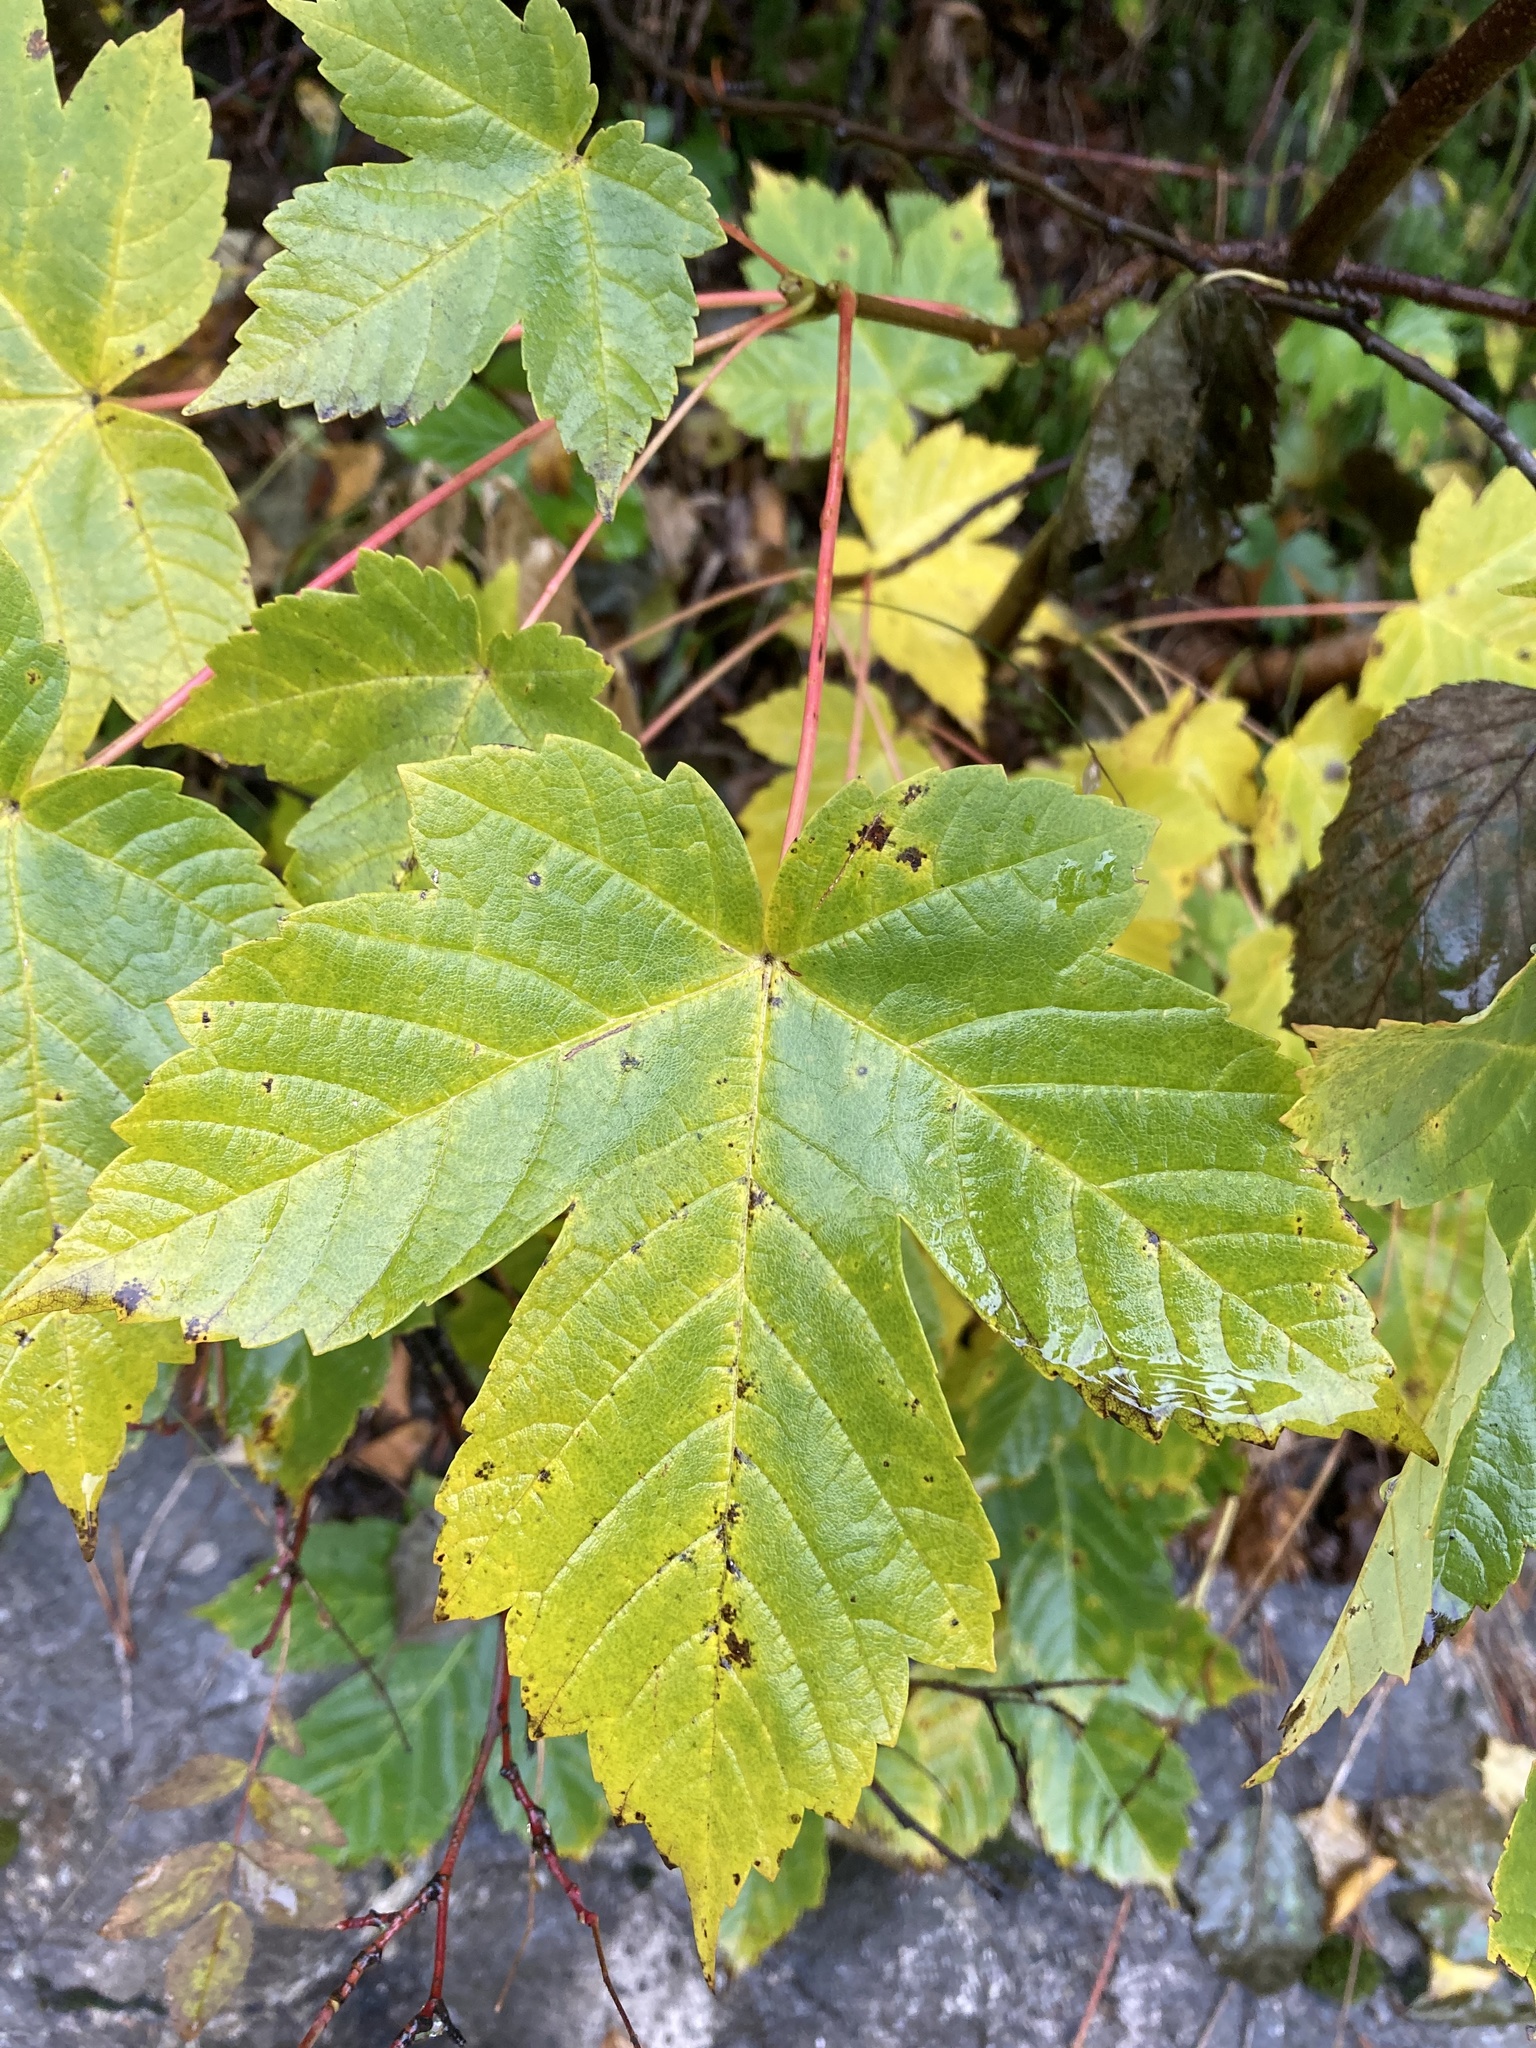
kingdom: Plantae
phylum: Tracheophyta
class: Magnoliopsida
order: Sapindales
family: Sapindaceae
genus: Acer
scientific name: Acer pseudoplatanus
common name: Sycamore
